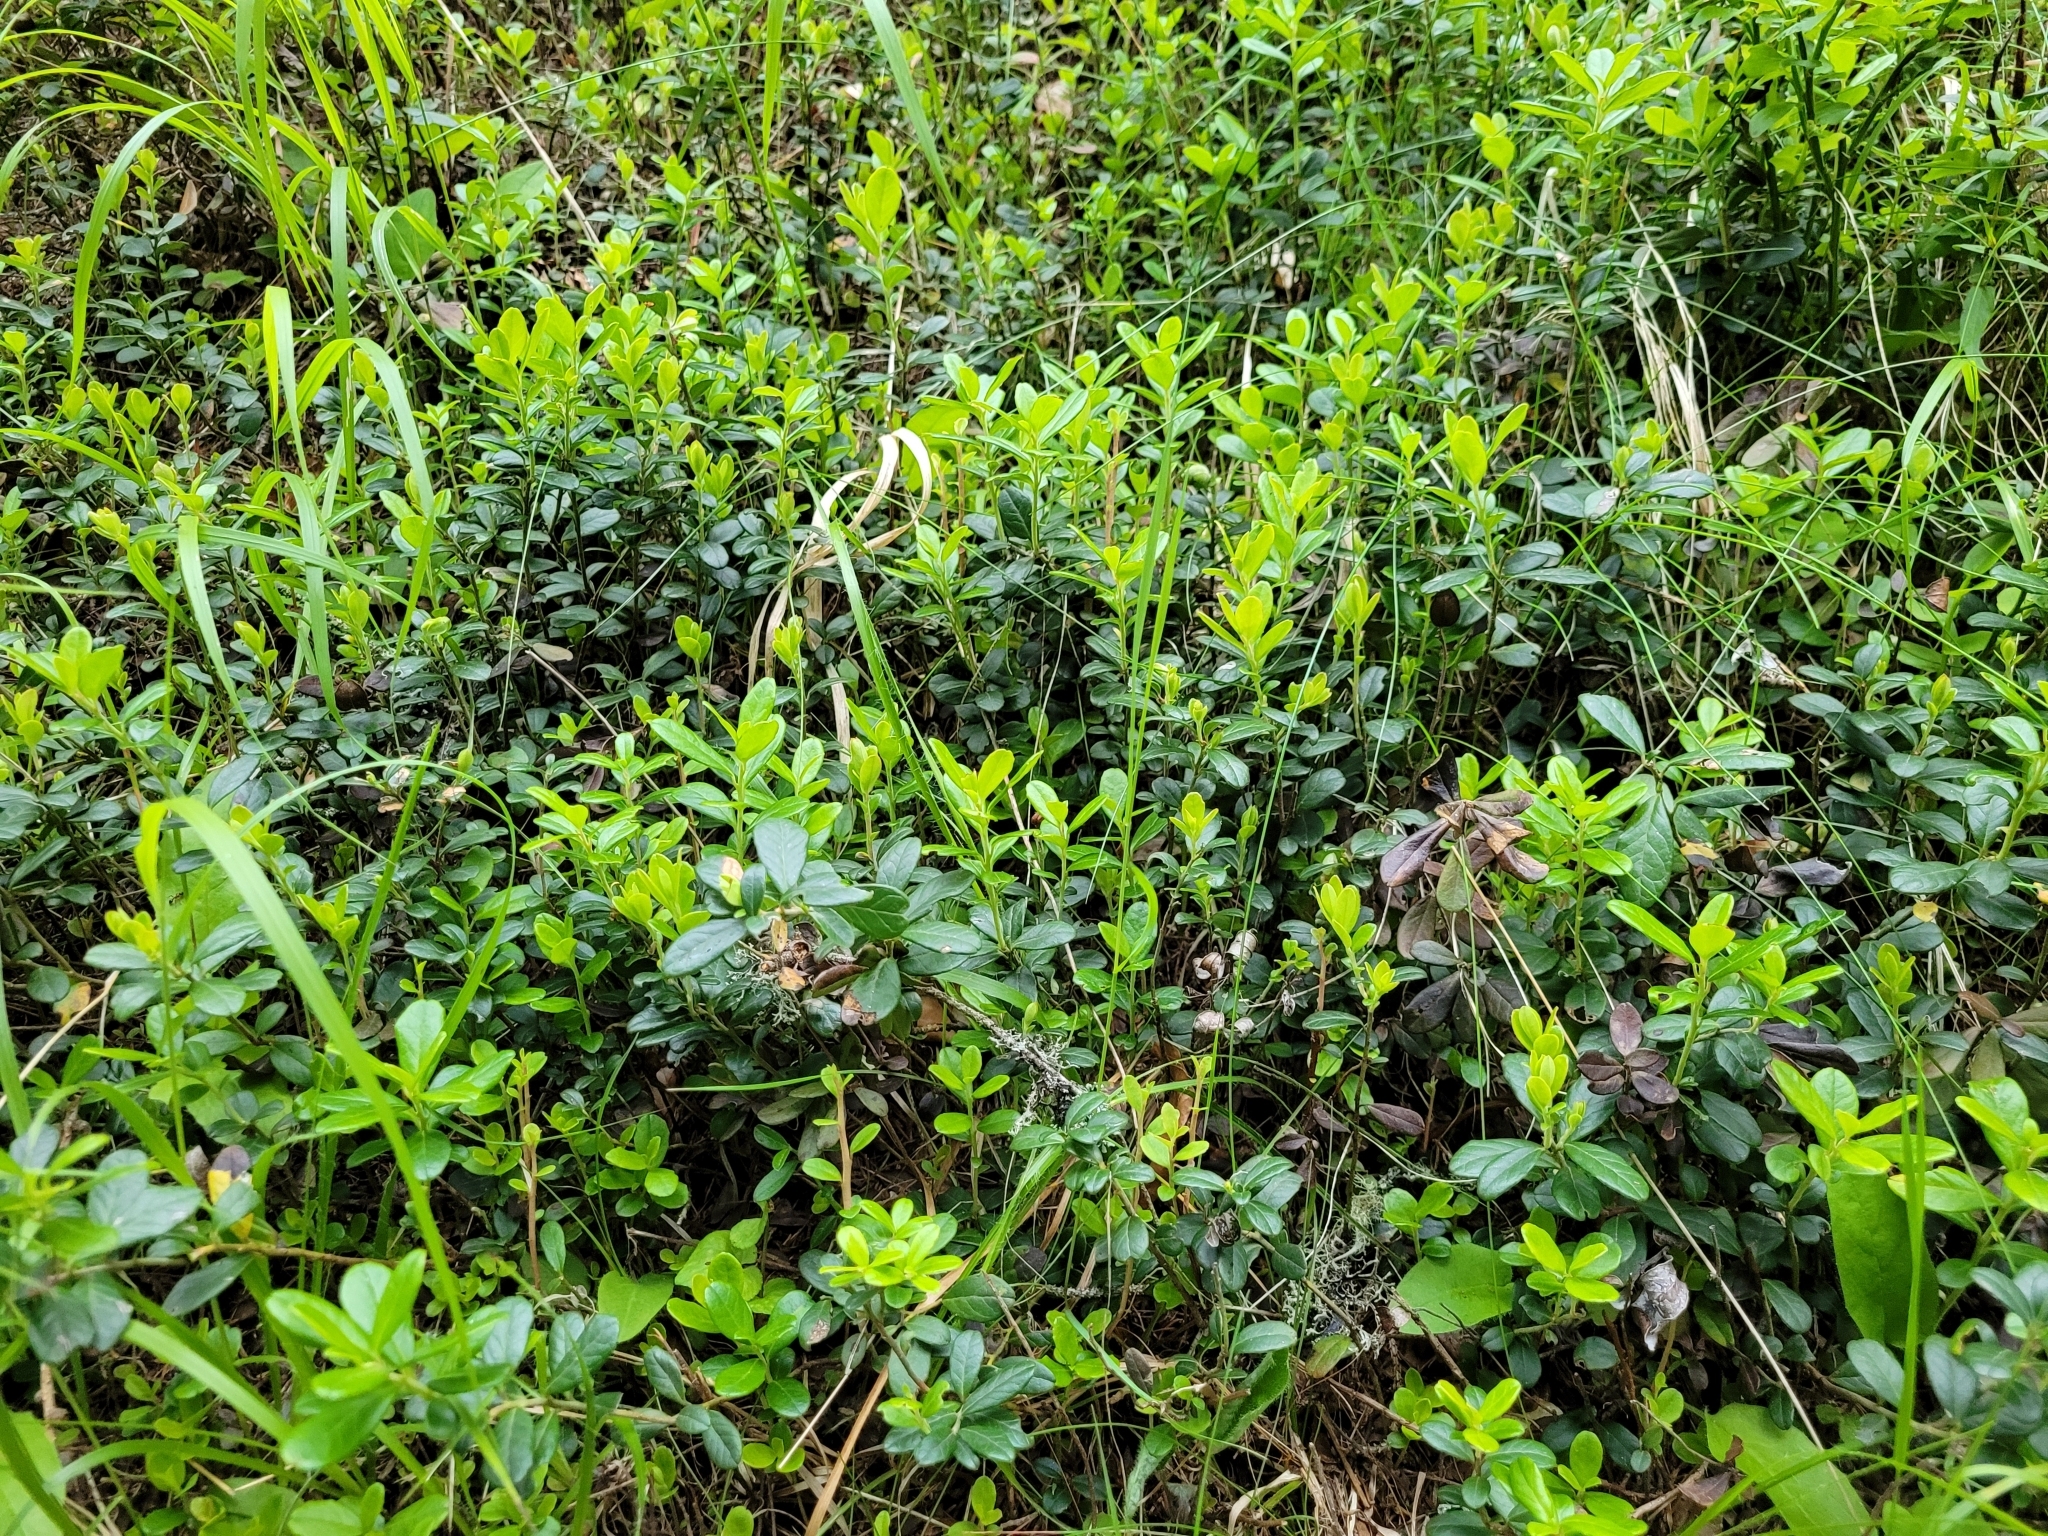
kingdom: Plantae
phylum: Tracheophyta
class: Magnoliopsida
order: Ericales
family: Ericaceae
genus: Vaccinium
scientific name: Vaccinium vitis-idaea
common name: Cowberry
